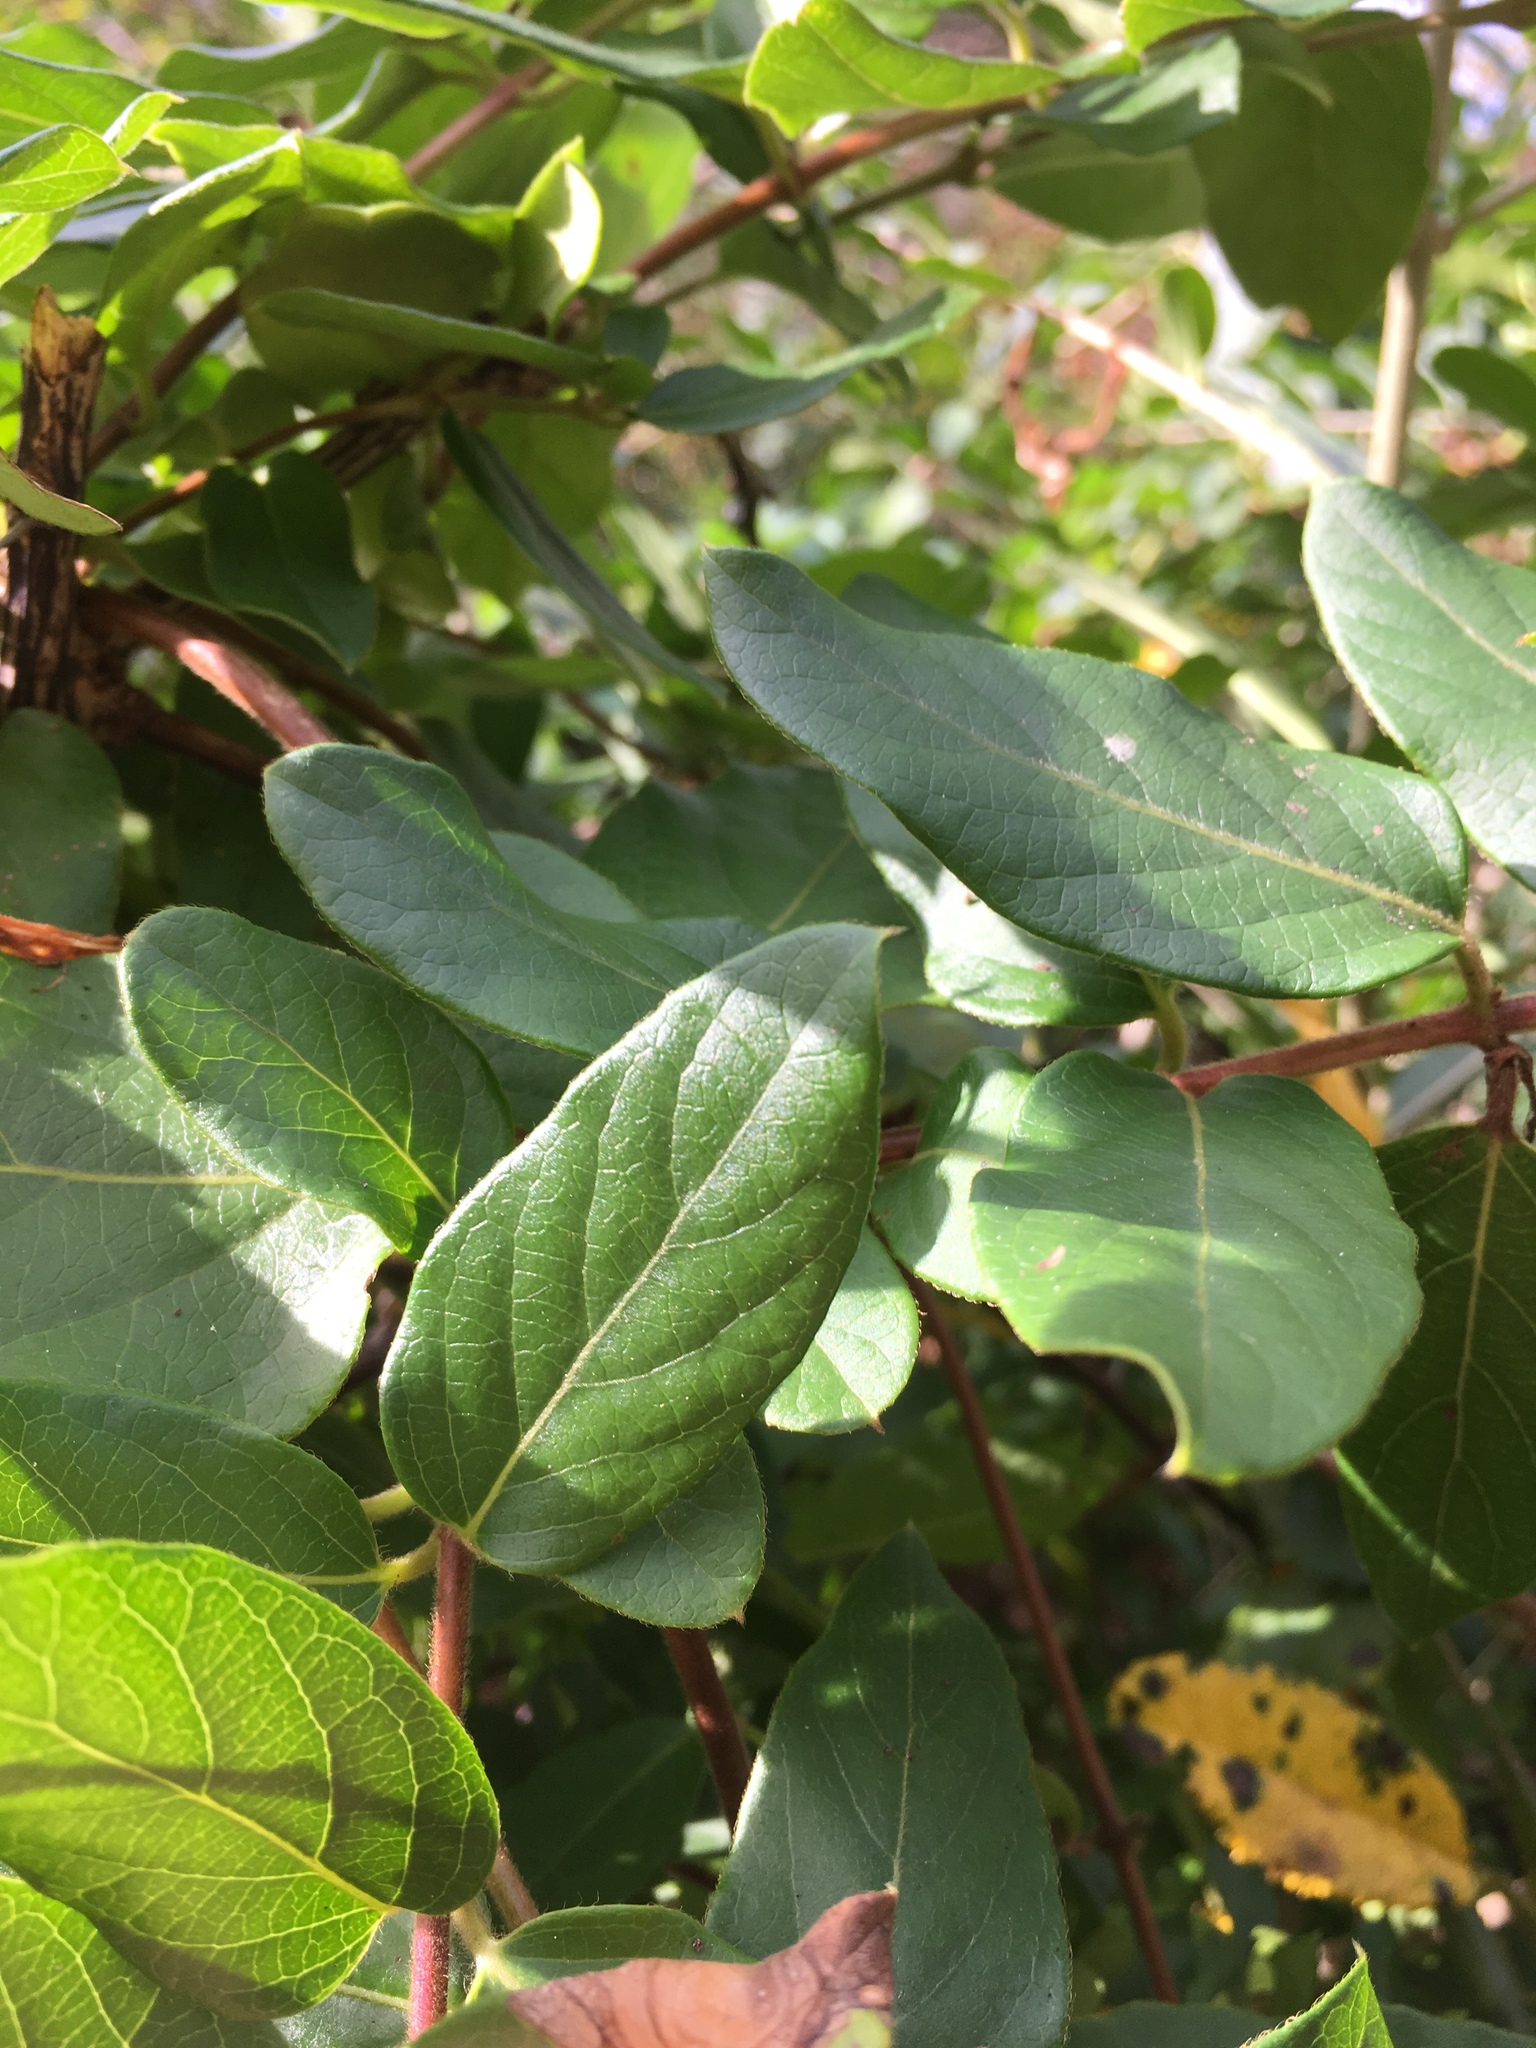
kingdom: Plantae
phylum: Tracheophyta
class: Magnoliopsida
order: Dipsacales
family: Caprifoliaceae
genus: Lonicera
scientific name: Lonicera japonica
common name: Japanese honeysuckle
